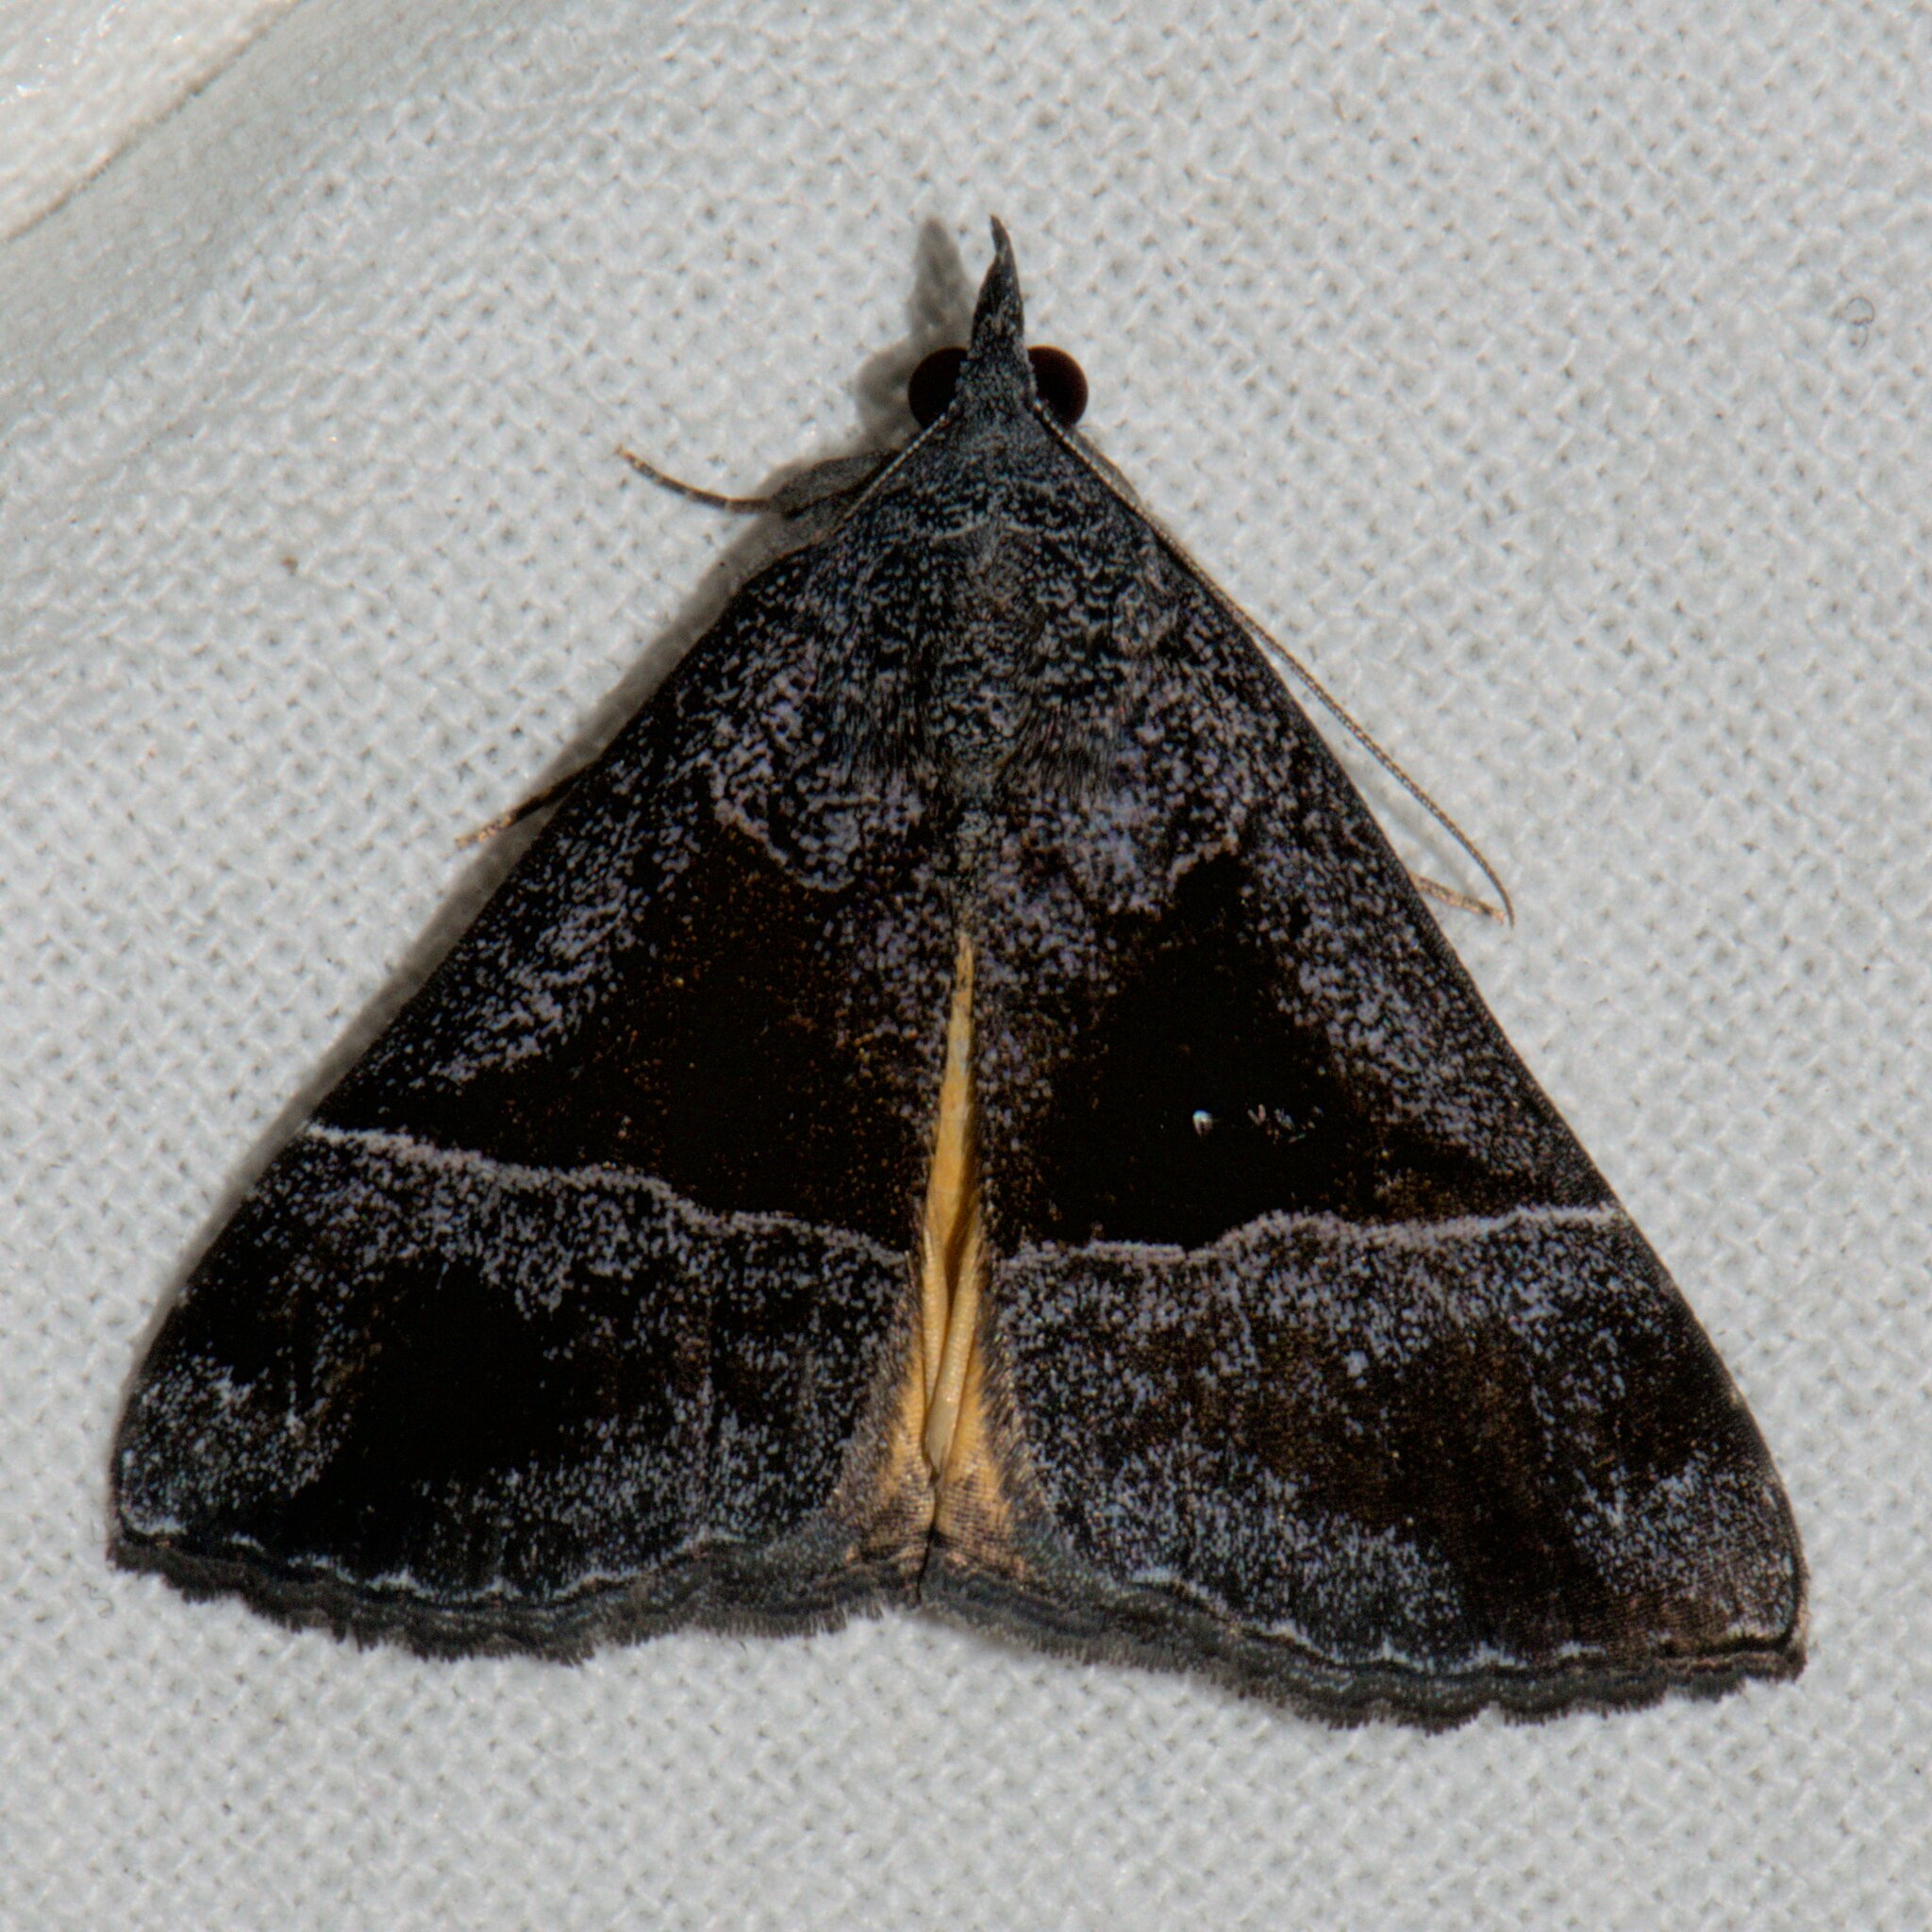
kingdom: Animalia
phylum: Arthropoda
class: Insecta
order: Lepidoptera
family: Erebidae
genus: Hypena
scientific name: Hypena amica
